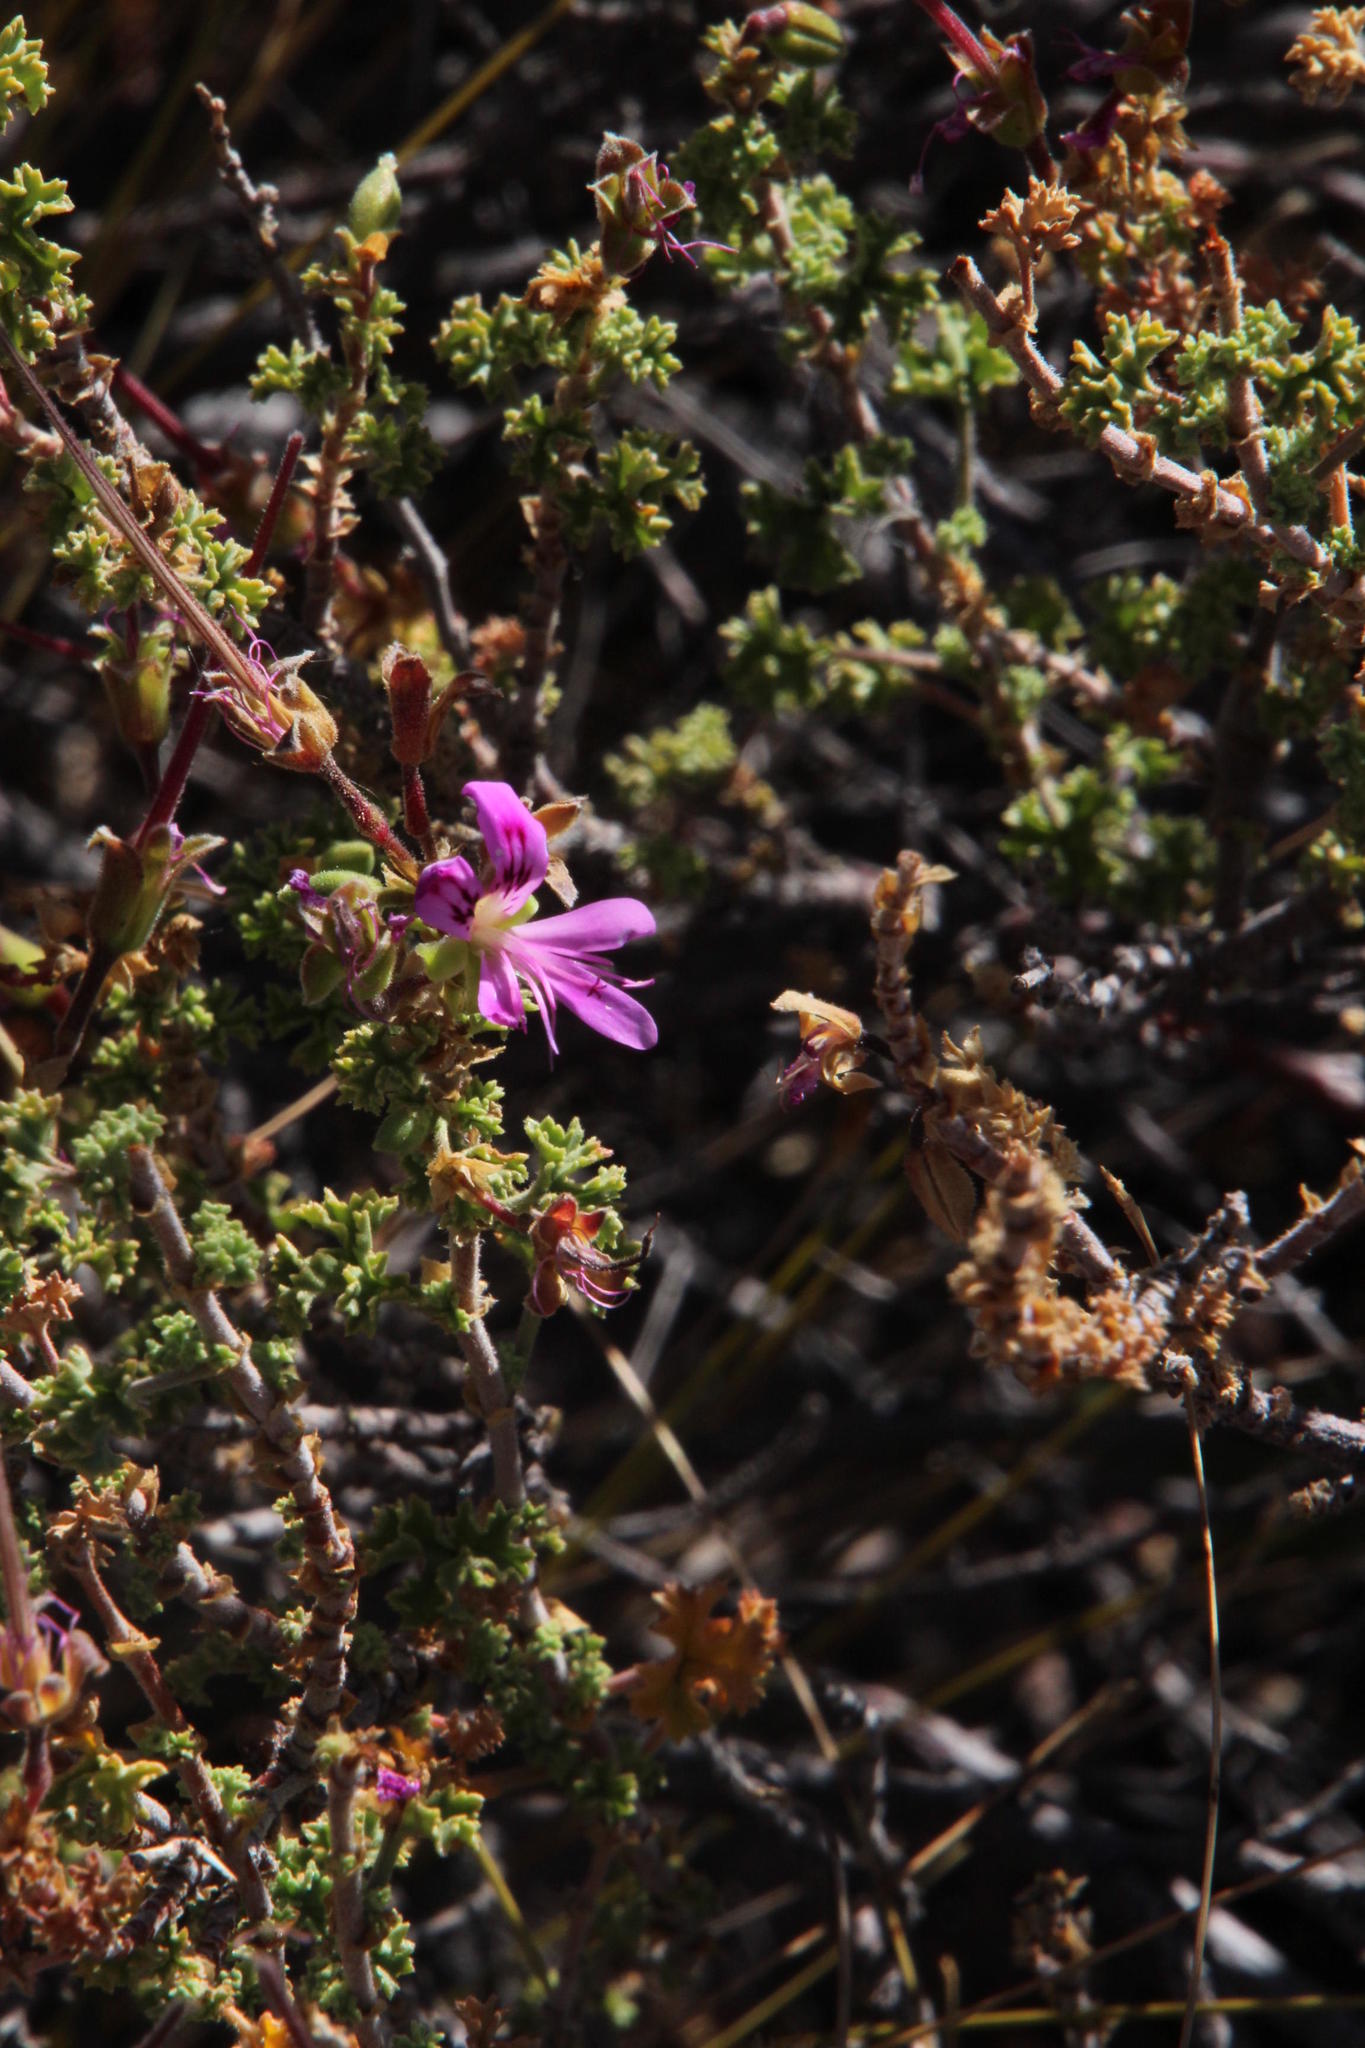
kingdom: Plantae
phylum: Tracheophyta
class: Magnoliopsida
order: Geraniales
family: Geraniaceae
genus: Pelargonium
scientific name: Pelargonium englerianum
